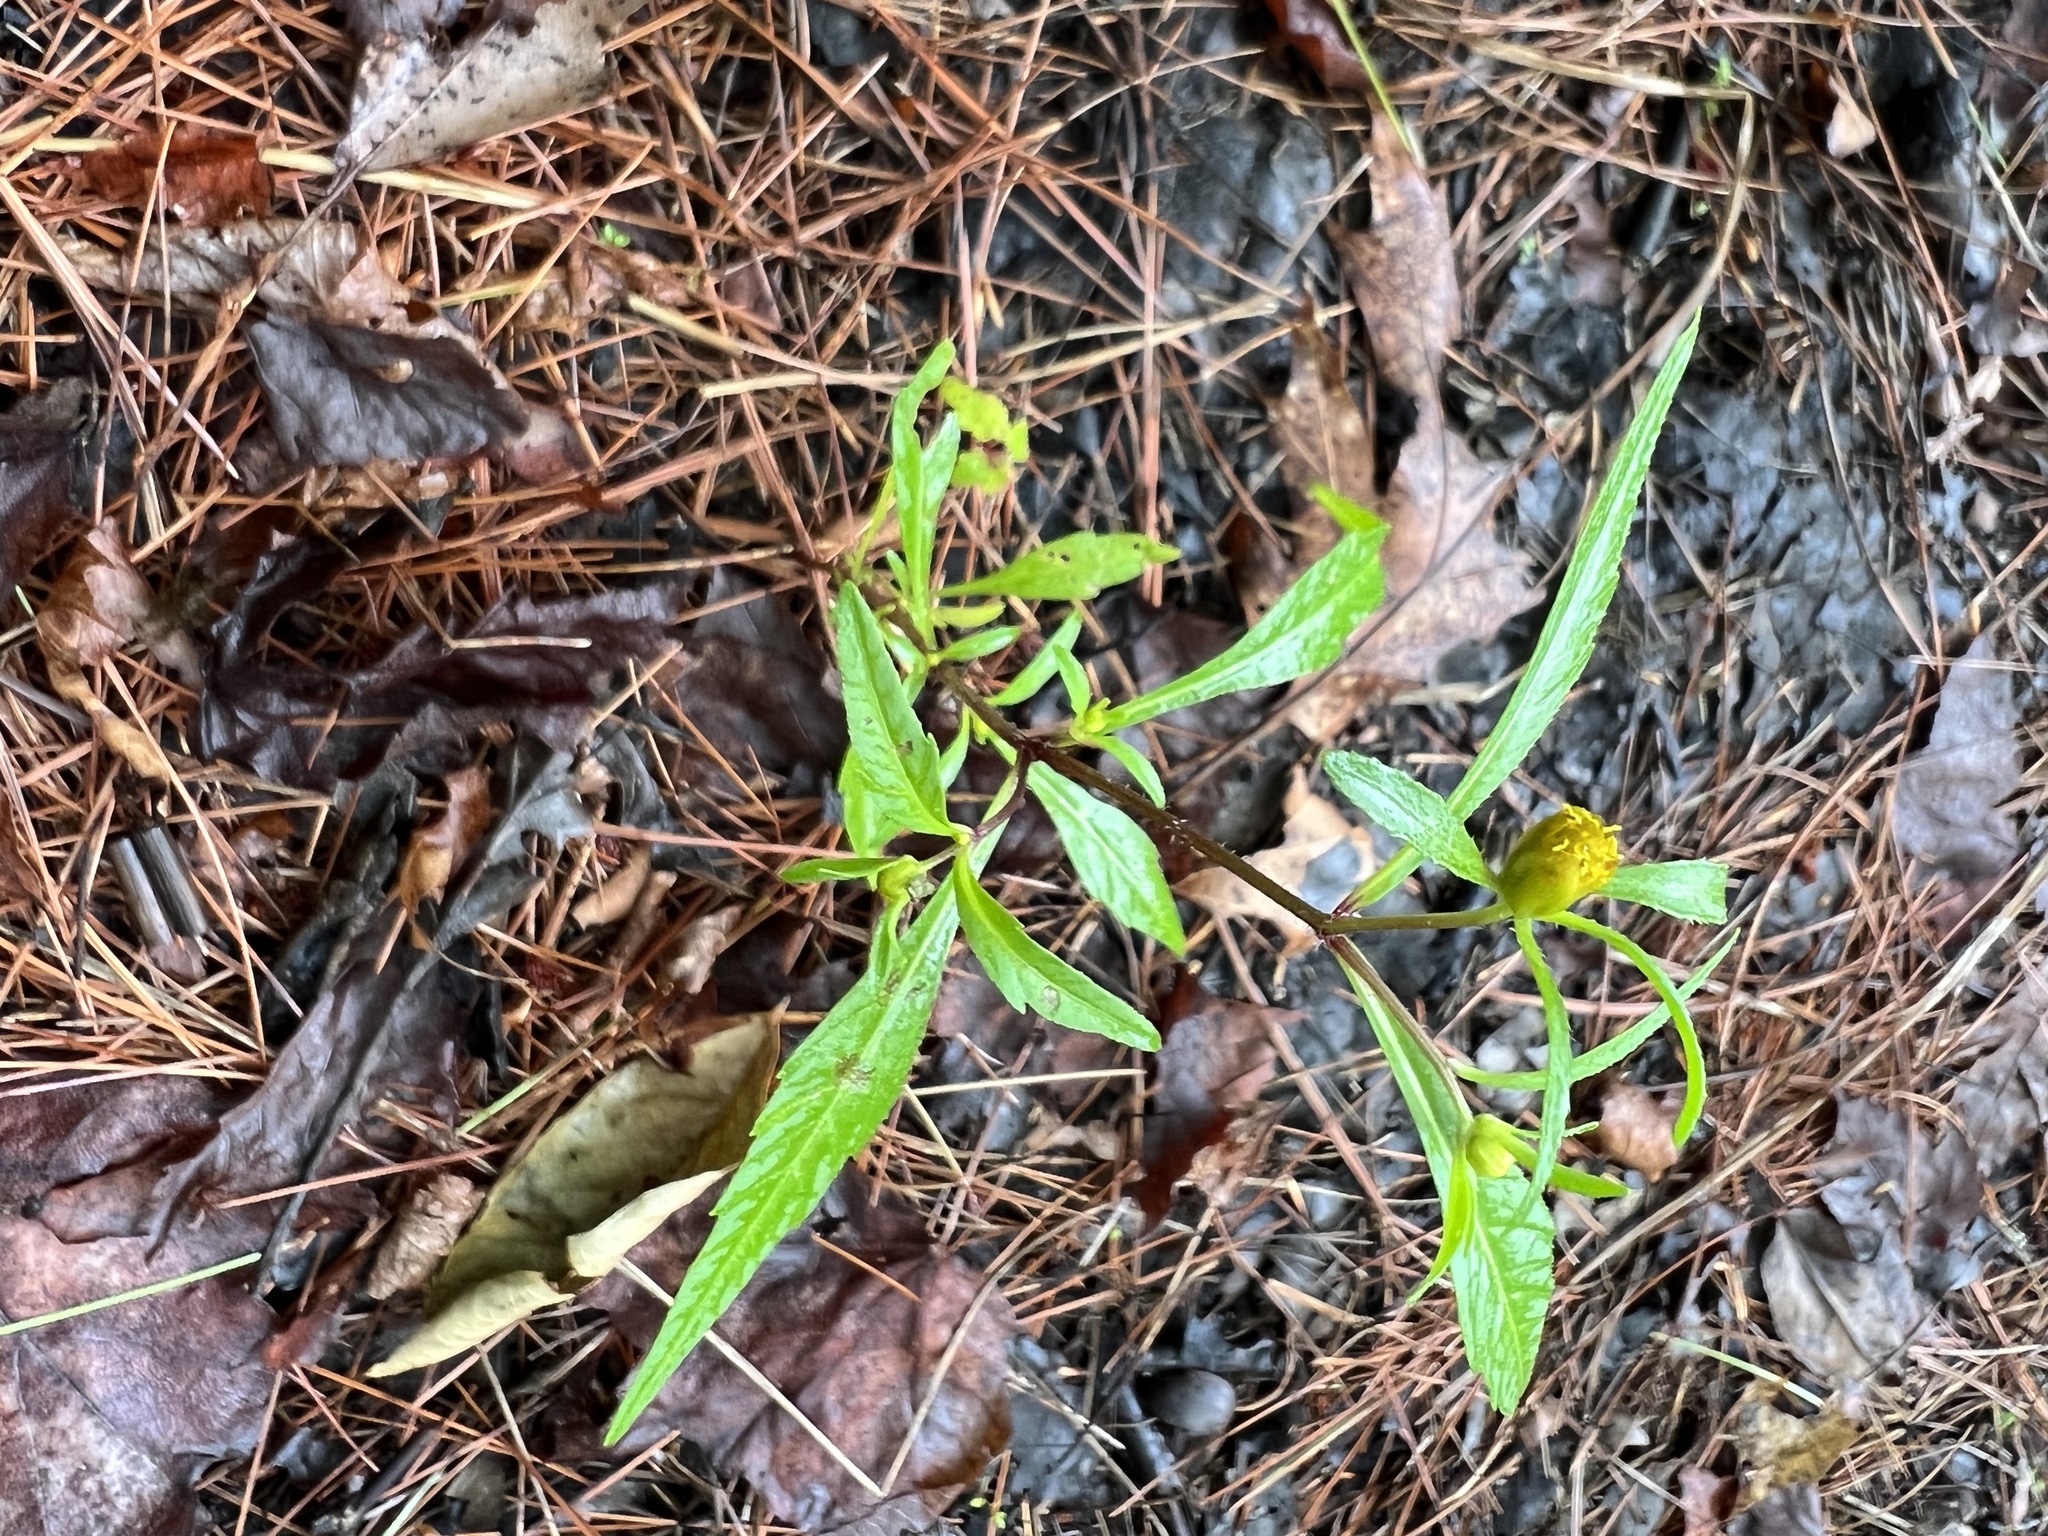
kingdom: Plantae
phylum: Tracheophyta
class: Magnoliopsida
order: Asterales
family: Asteraceae
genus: Bidens
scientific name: Bidens connata
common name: London bur-marigold
